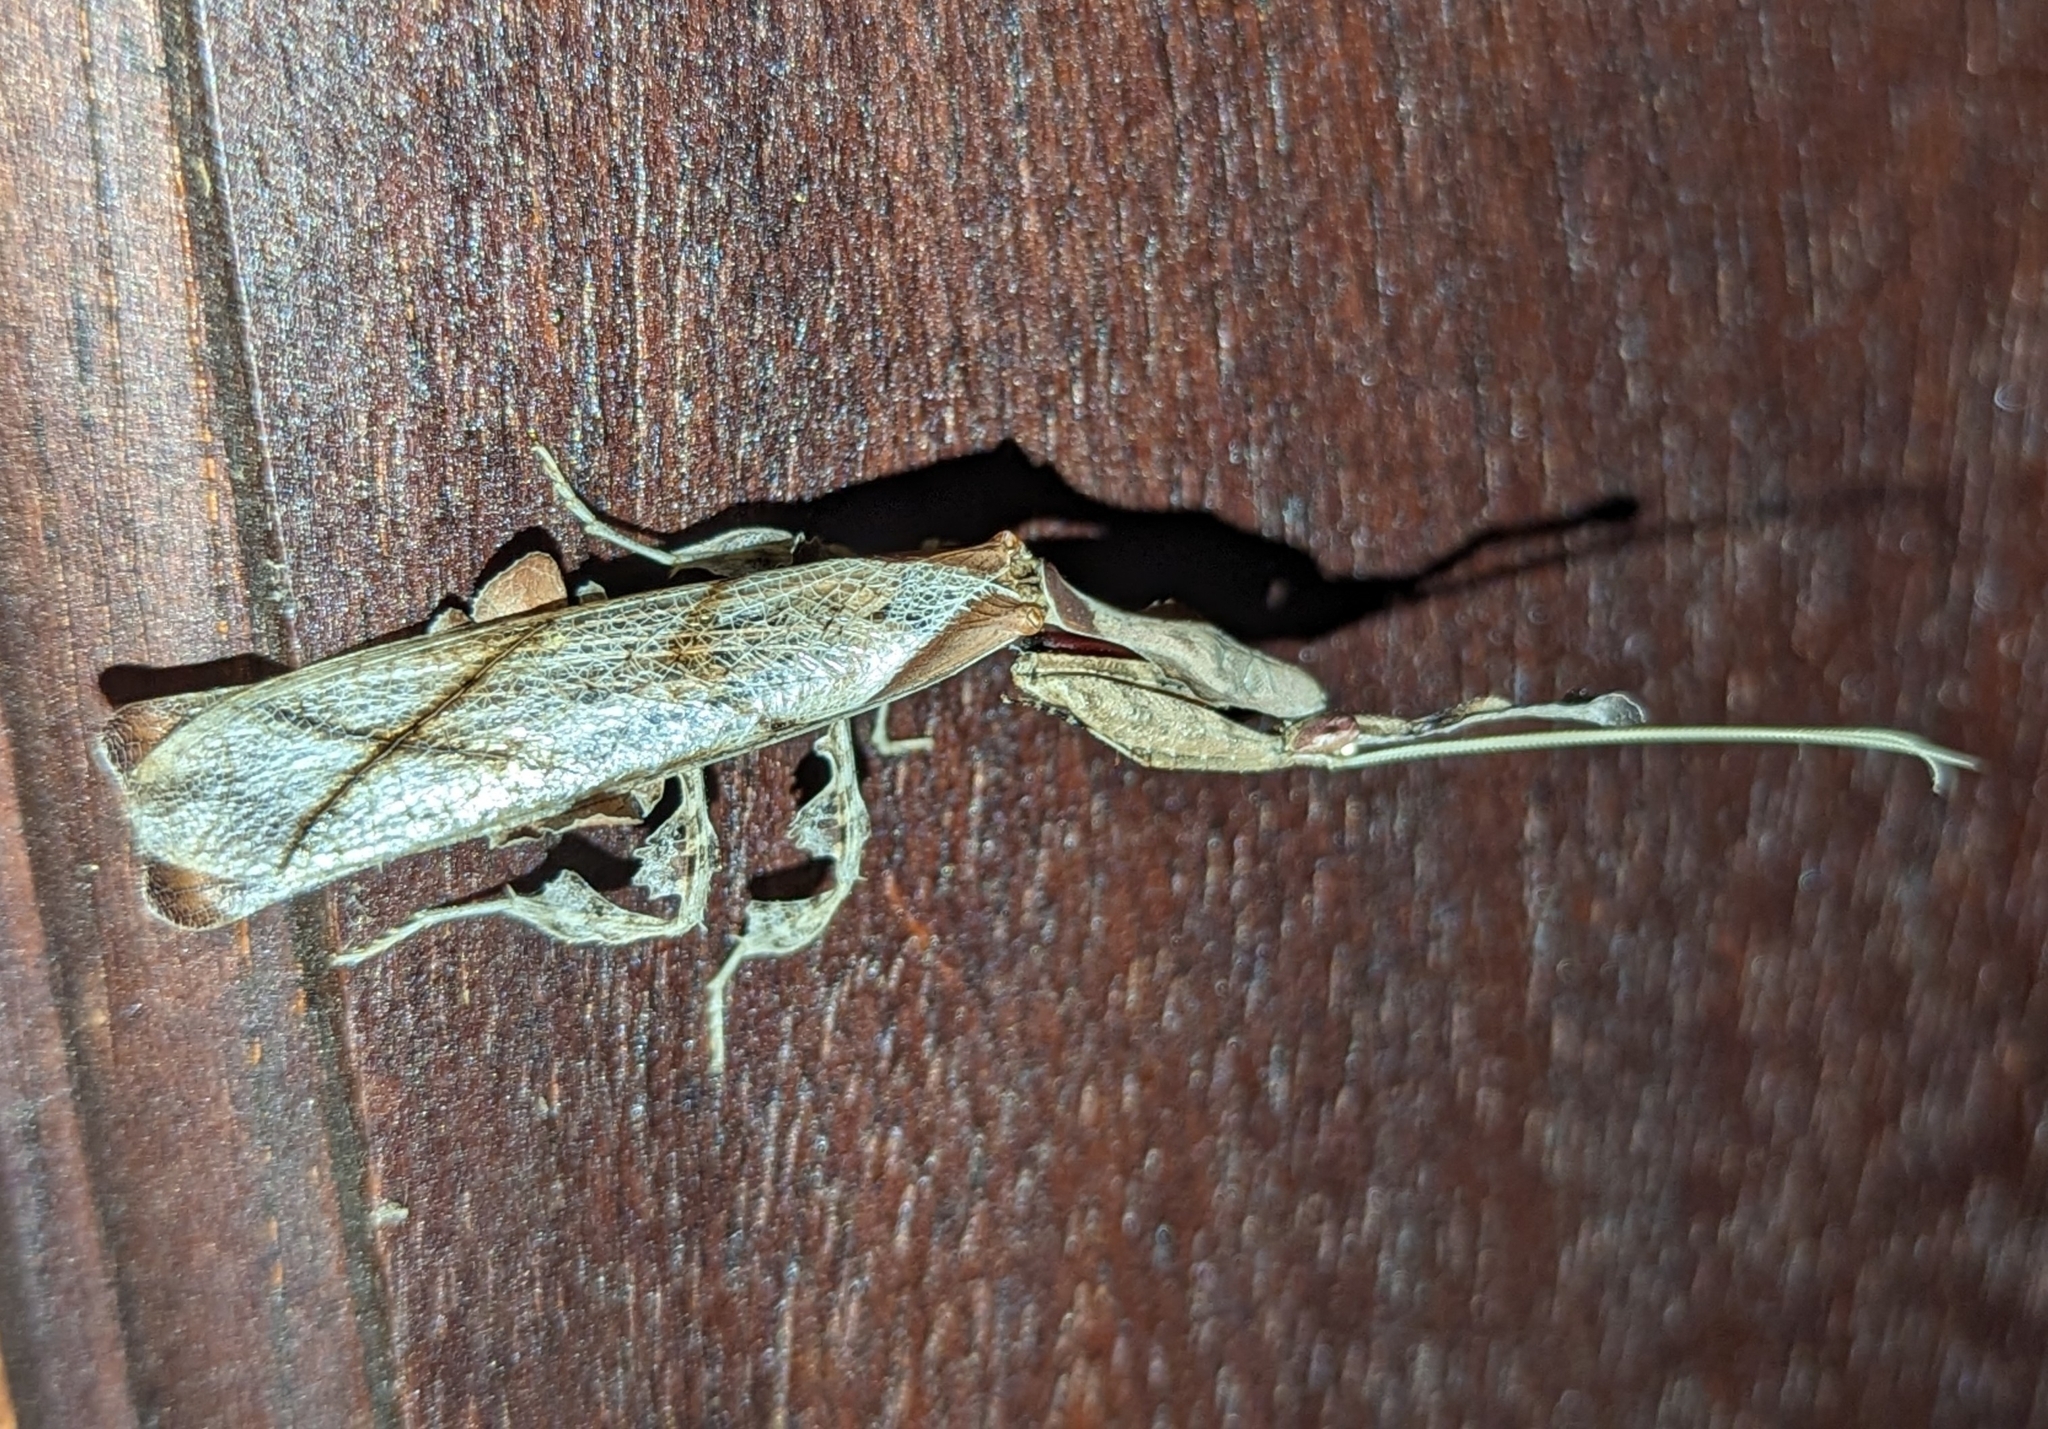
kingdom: Animalia
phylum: Arthropoda
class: Insecta
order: Mantodea
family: Hymenopodidae
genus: Phyllocrania
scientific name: Phyllocrania paradoxa
